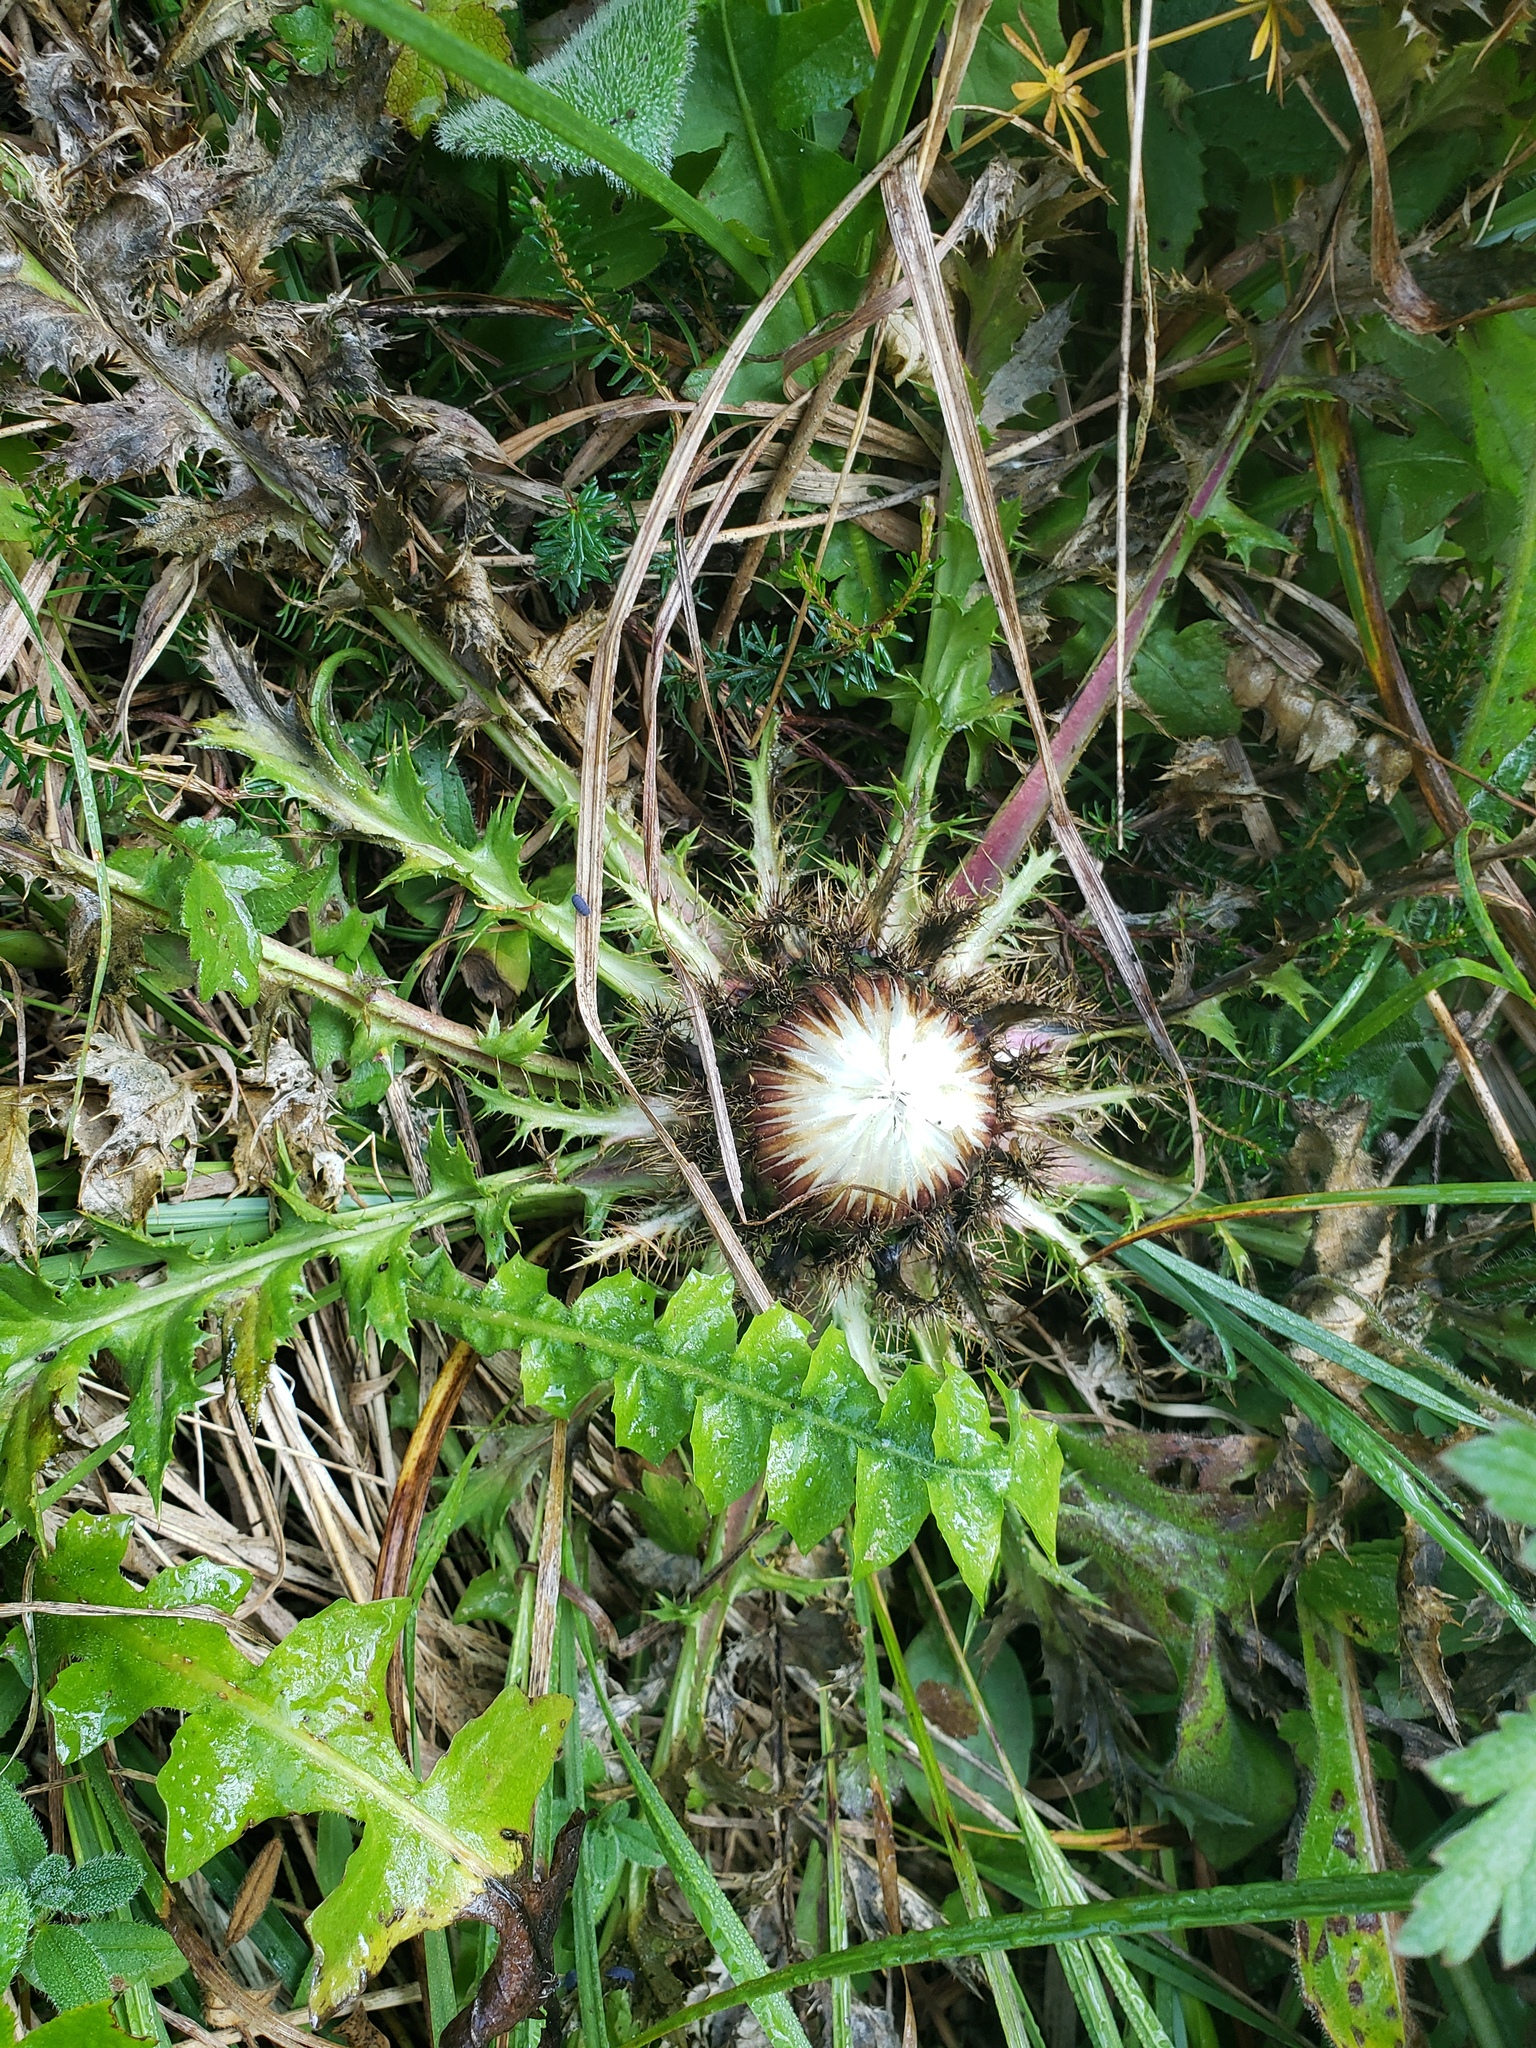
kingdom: Plantae
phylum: Tracheophyta
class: Magnoliopsida
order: Asterales
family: Asteraceae
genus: Carlina
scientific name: Carlina acaulis
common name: Stemless carline thistle
